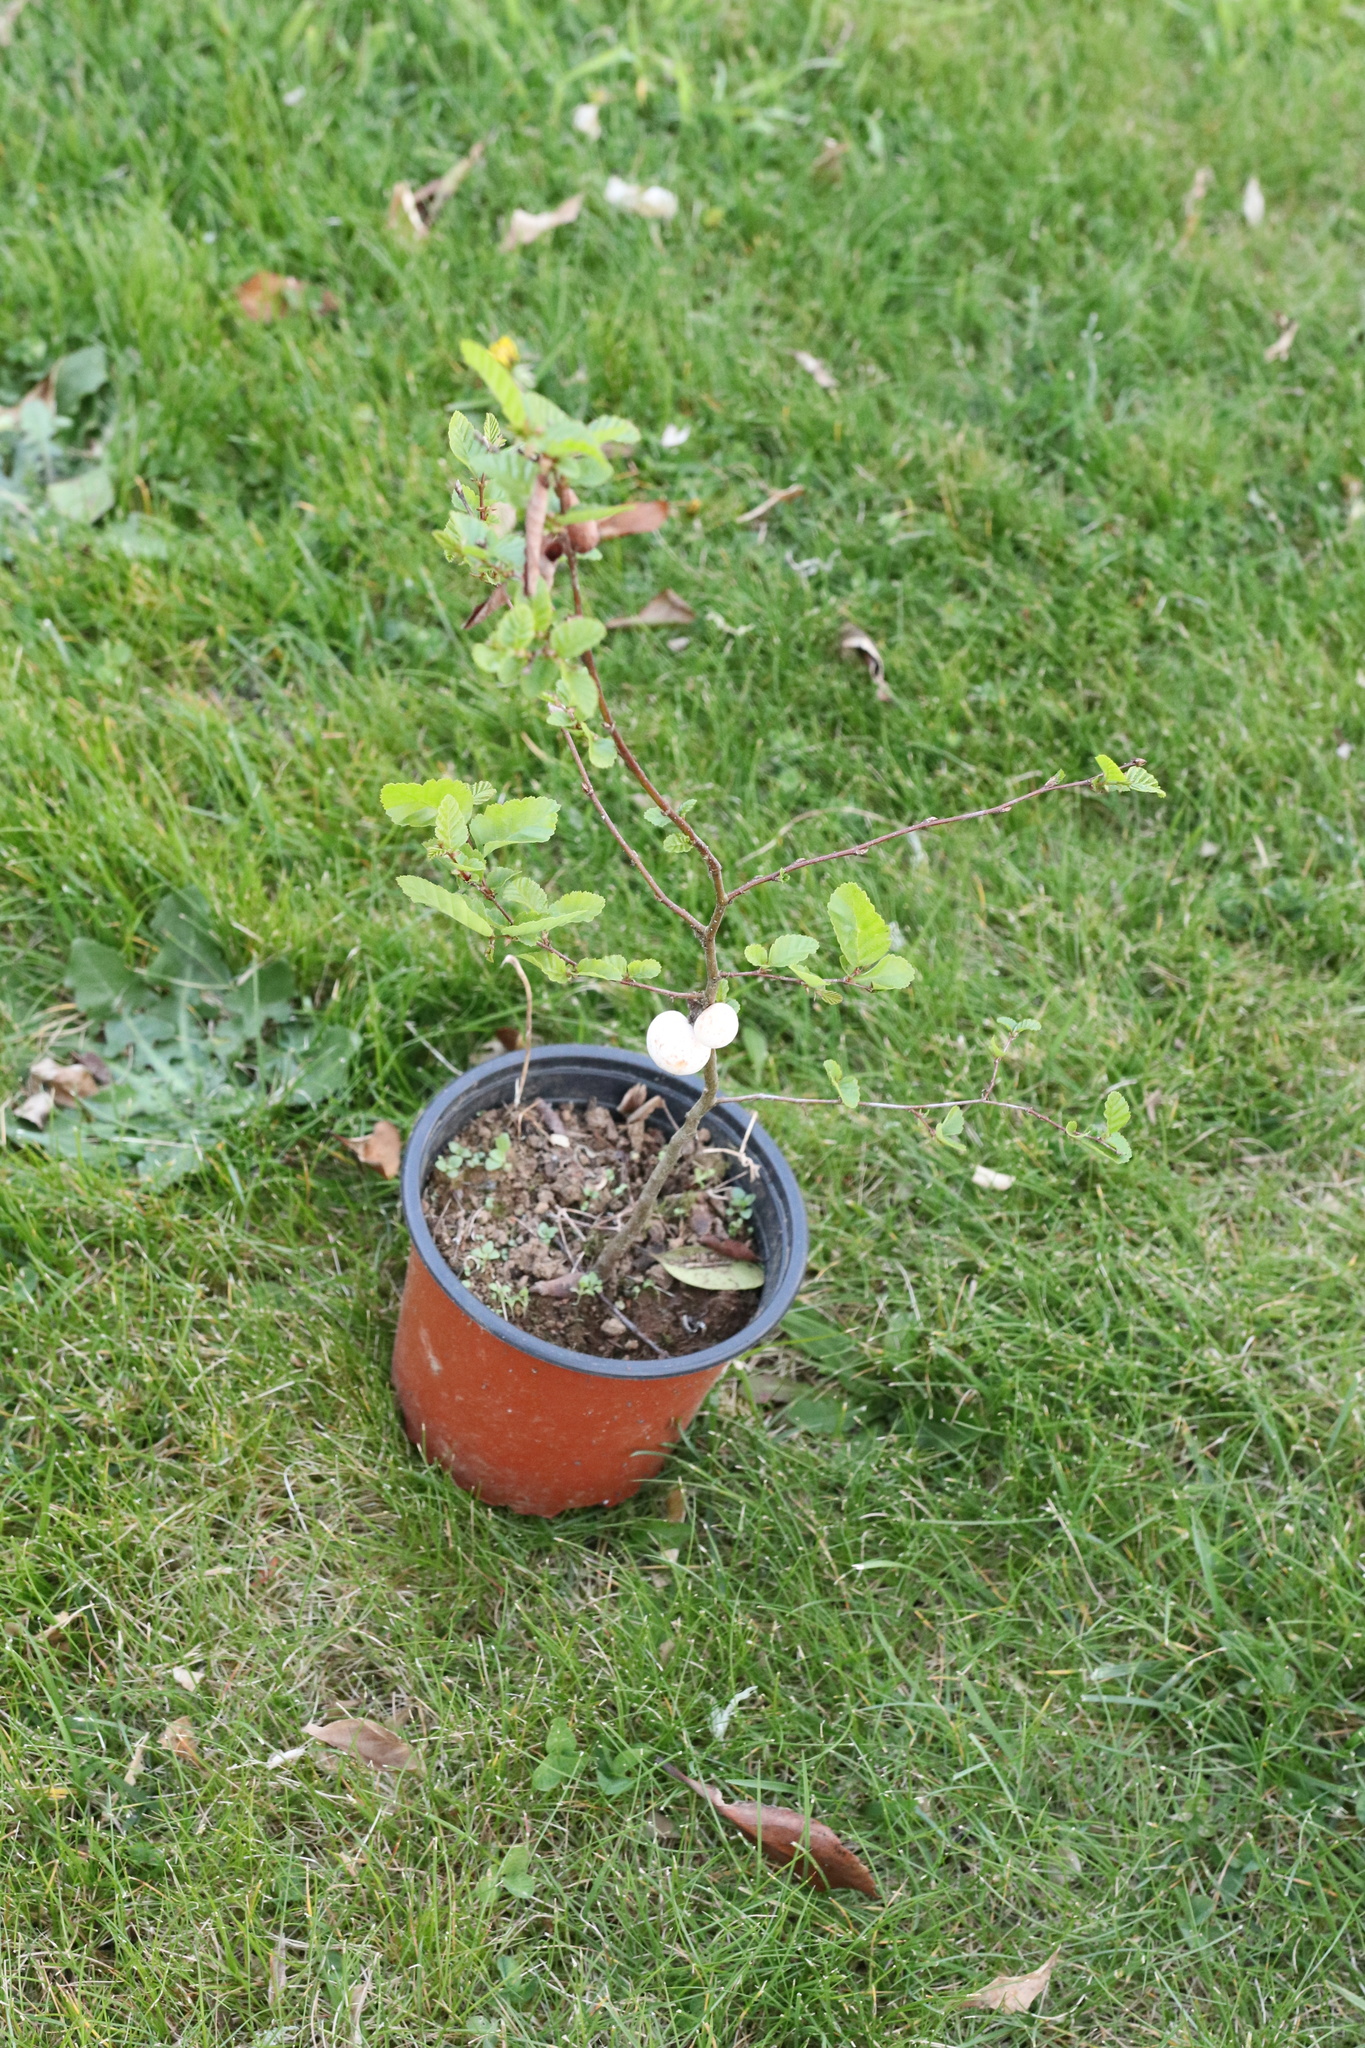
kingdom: Fungi
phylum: Ascomycota
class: Leotiomycetes
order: Cyttariales
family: Cyttariaceae
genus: Cyttaria
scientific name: Cyttaria espinosae
